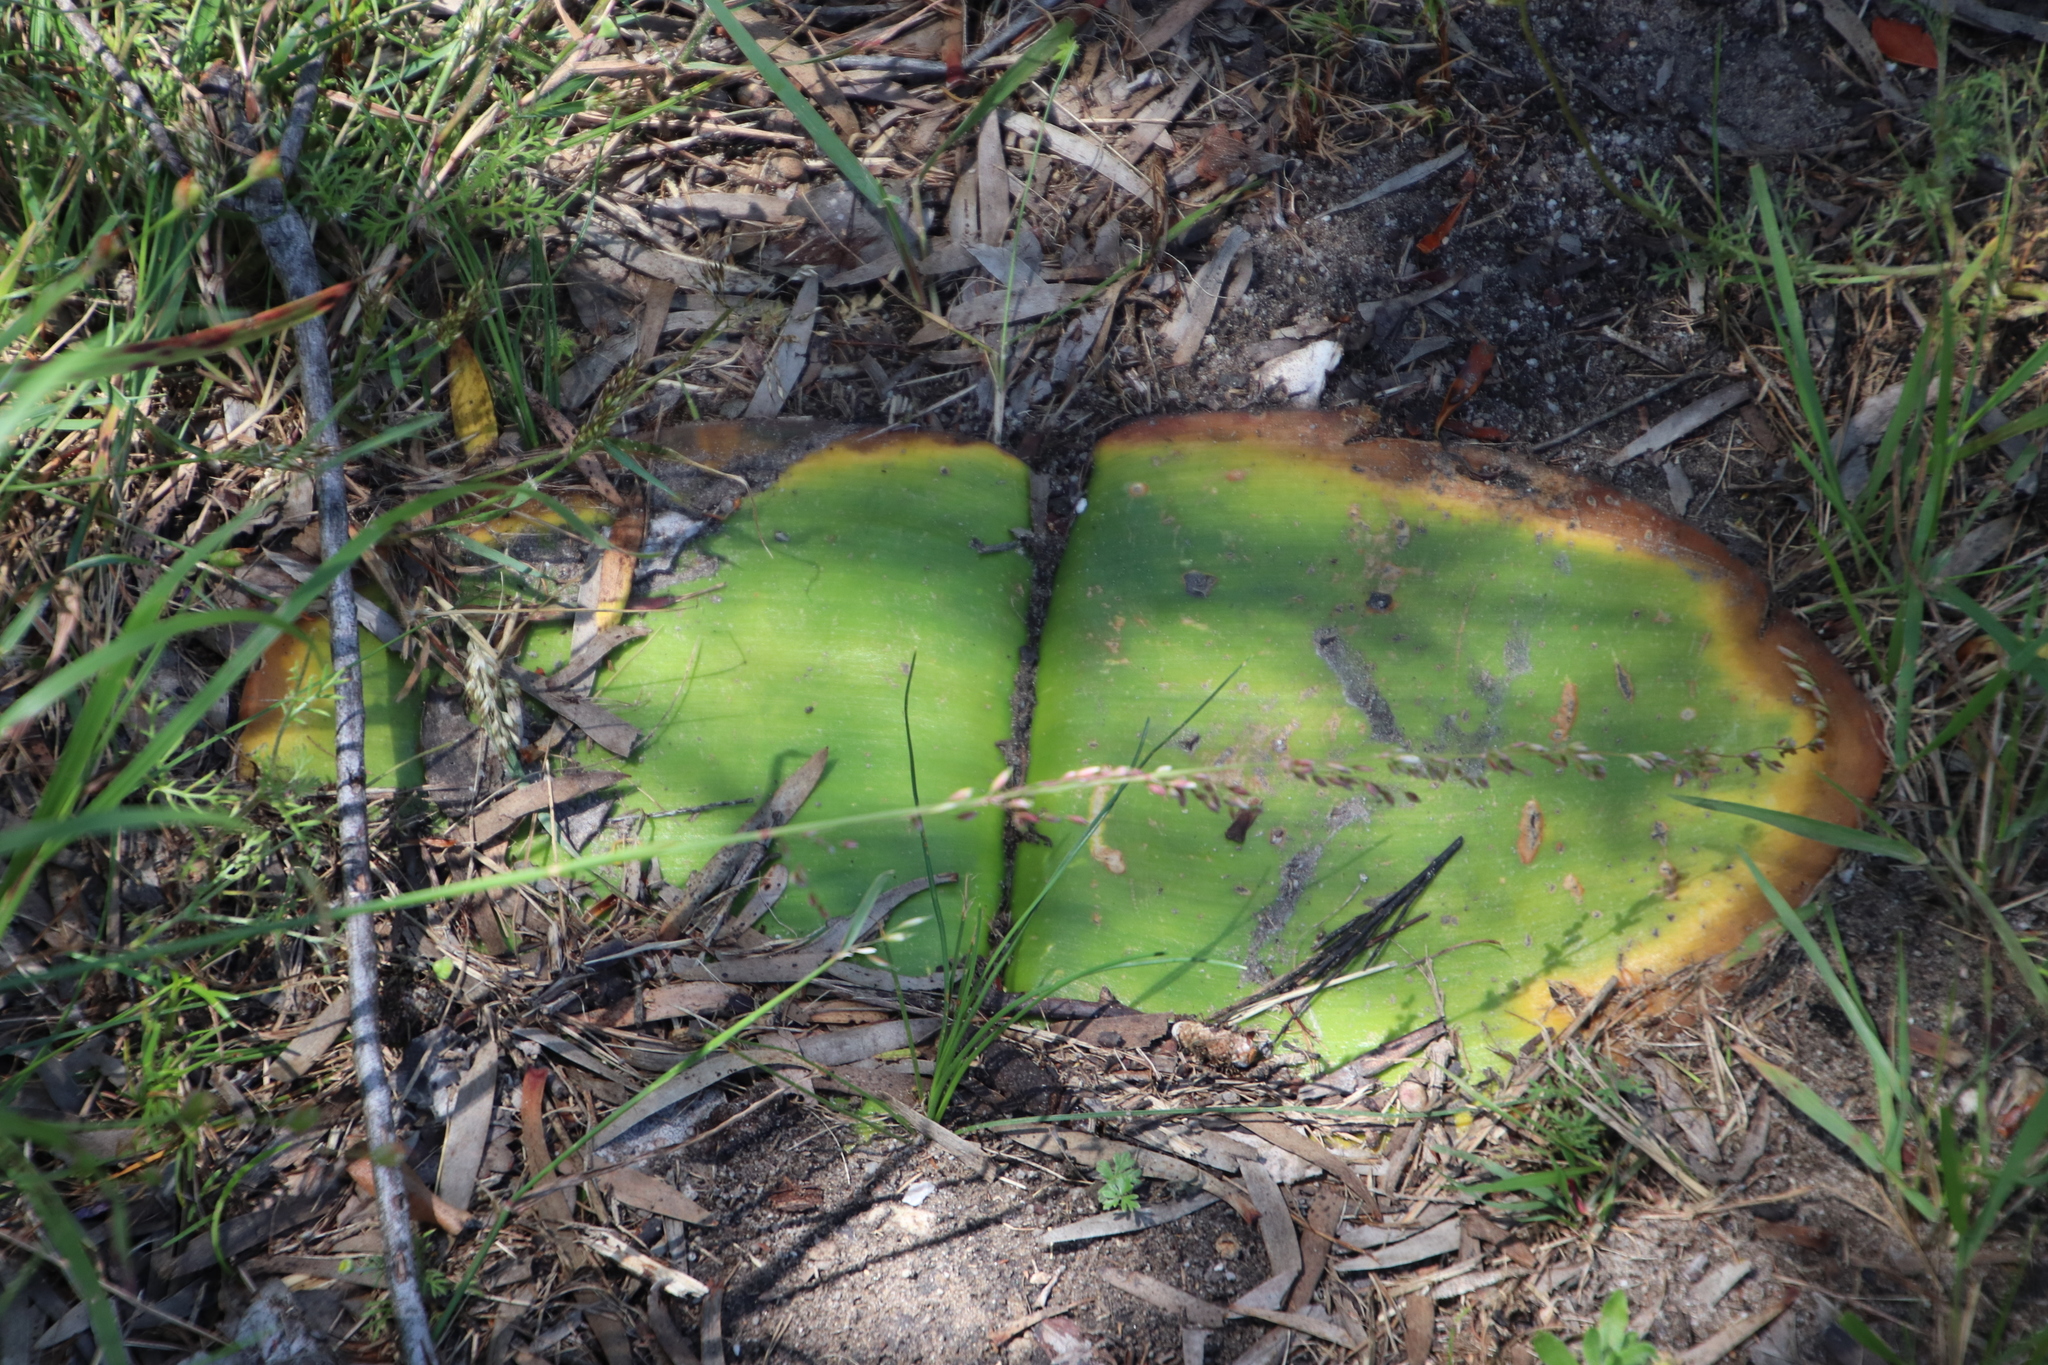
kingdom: Plantae
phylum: Tracheophyta
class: Liliopsida
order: Asparagales
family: Amaryllidaceae
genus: Haemanthus
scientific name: Haemanthus sanguineus
